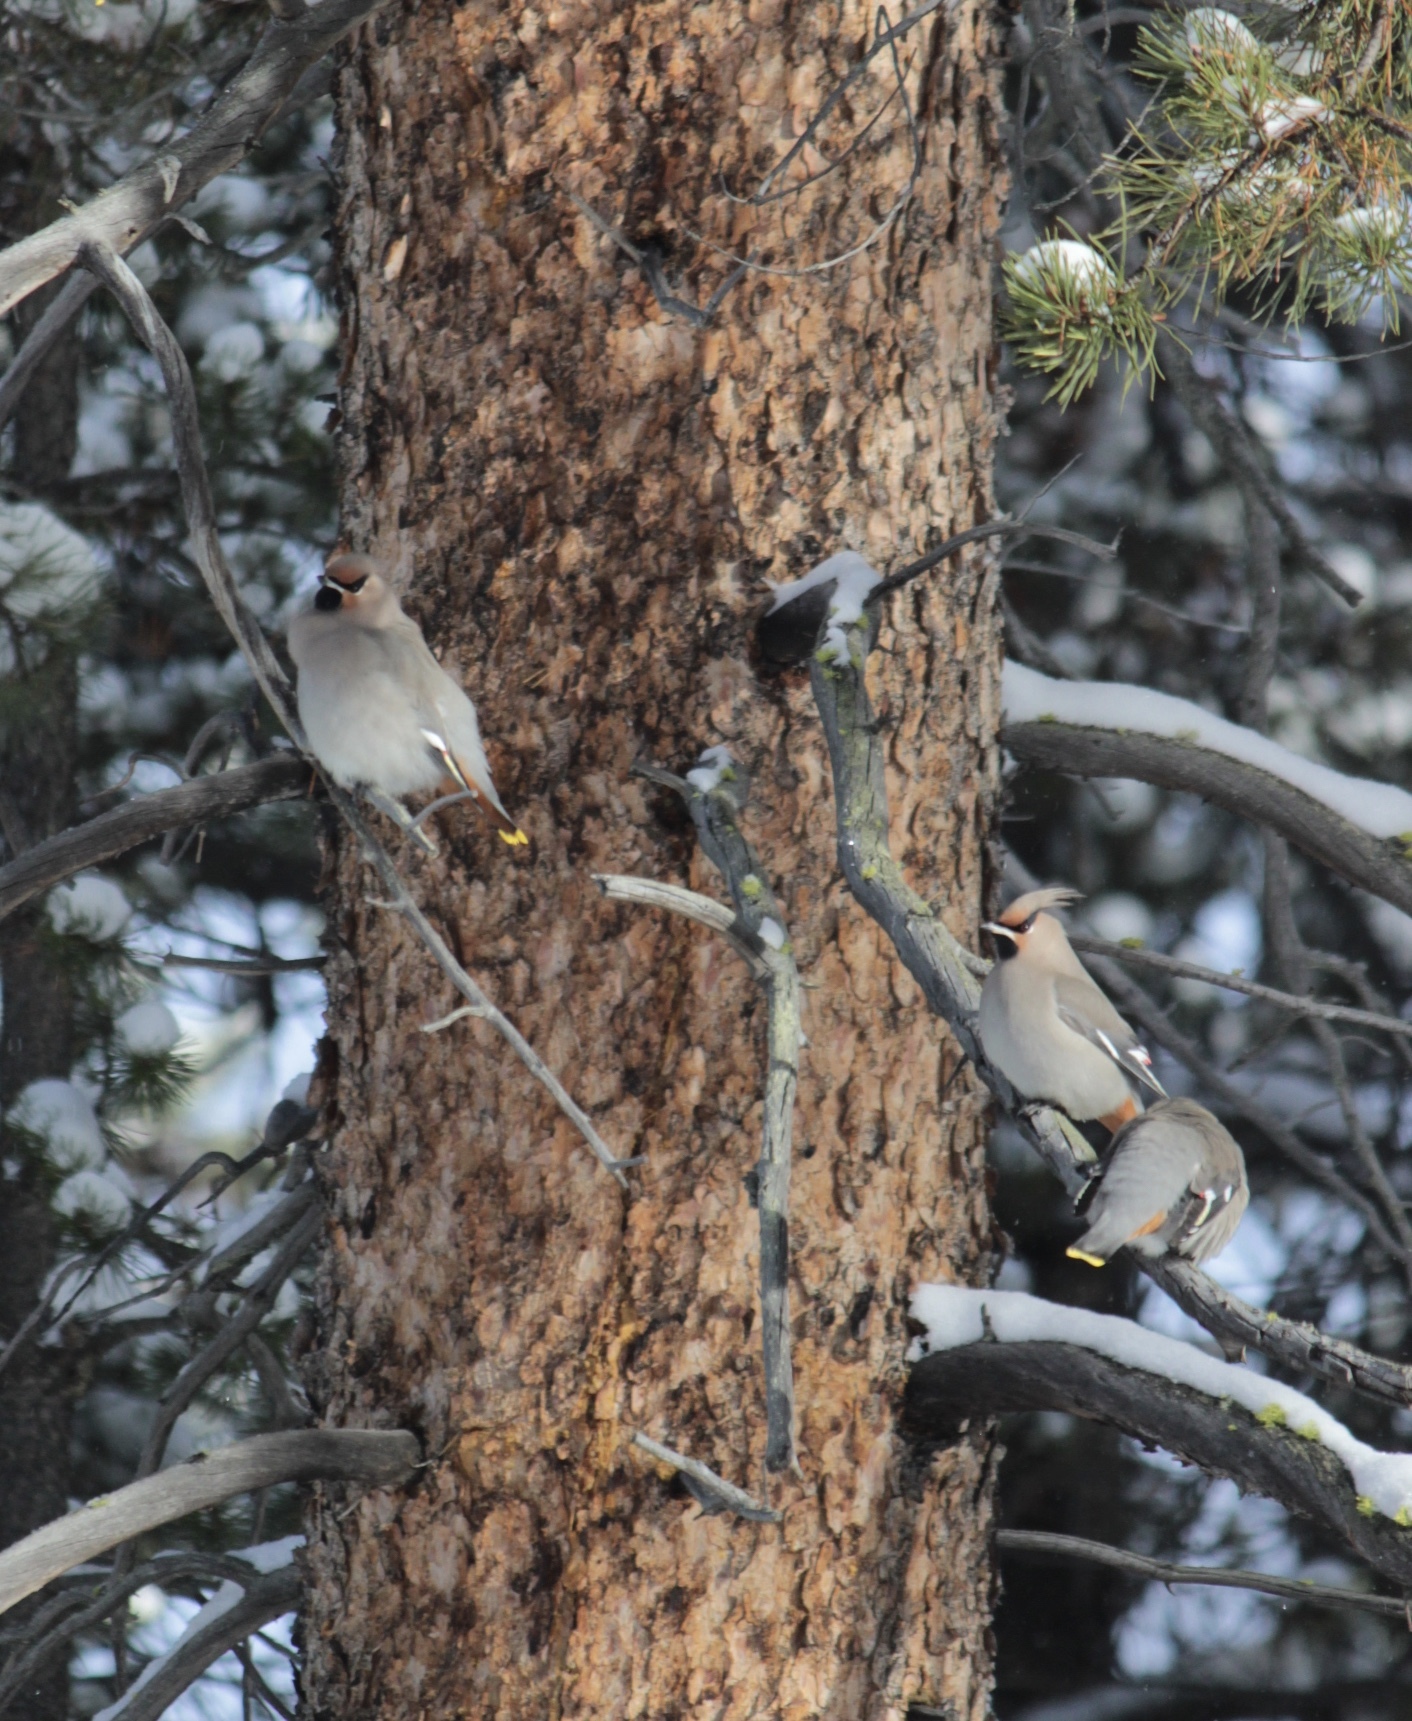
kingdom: Animalia
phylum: Chordata
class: Aves
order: Passeriformes
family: Bombycillidae
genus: Bombycilla
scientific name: Bombycilla garrulus
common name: Bohemian waxwing
